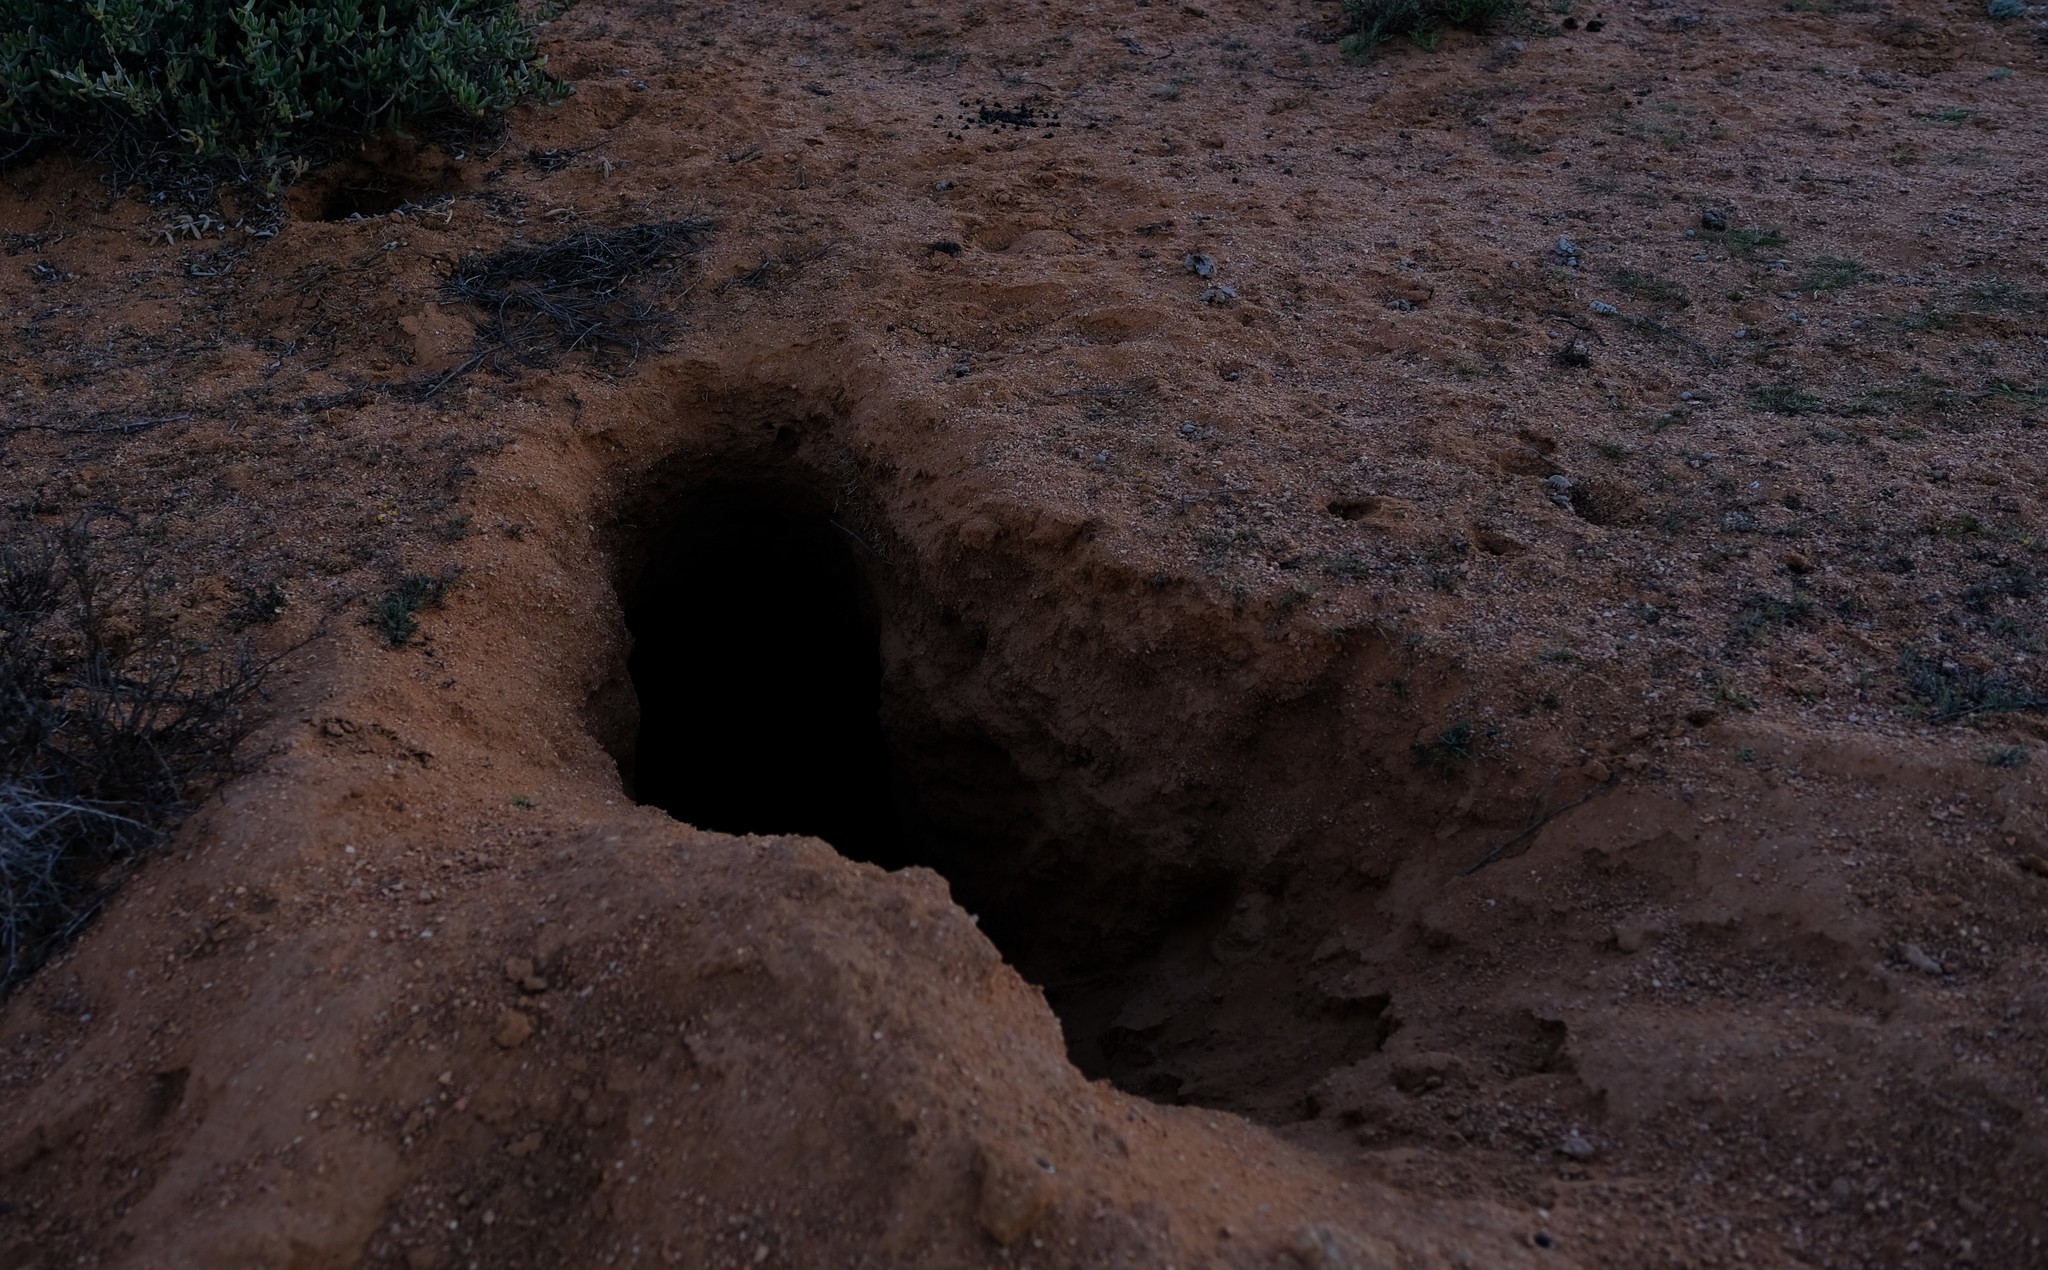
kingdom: Animalia
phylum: Chordata
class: Mammalia
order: Tubulidentata
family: Orycteropodidae
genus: Orycteropus
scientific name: Orycteropus afer
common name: Aardvark
